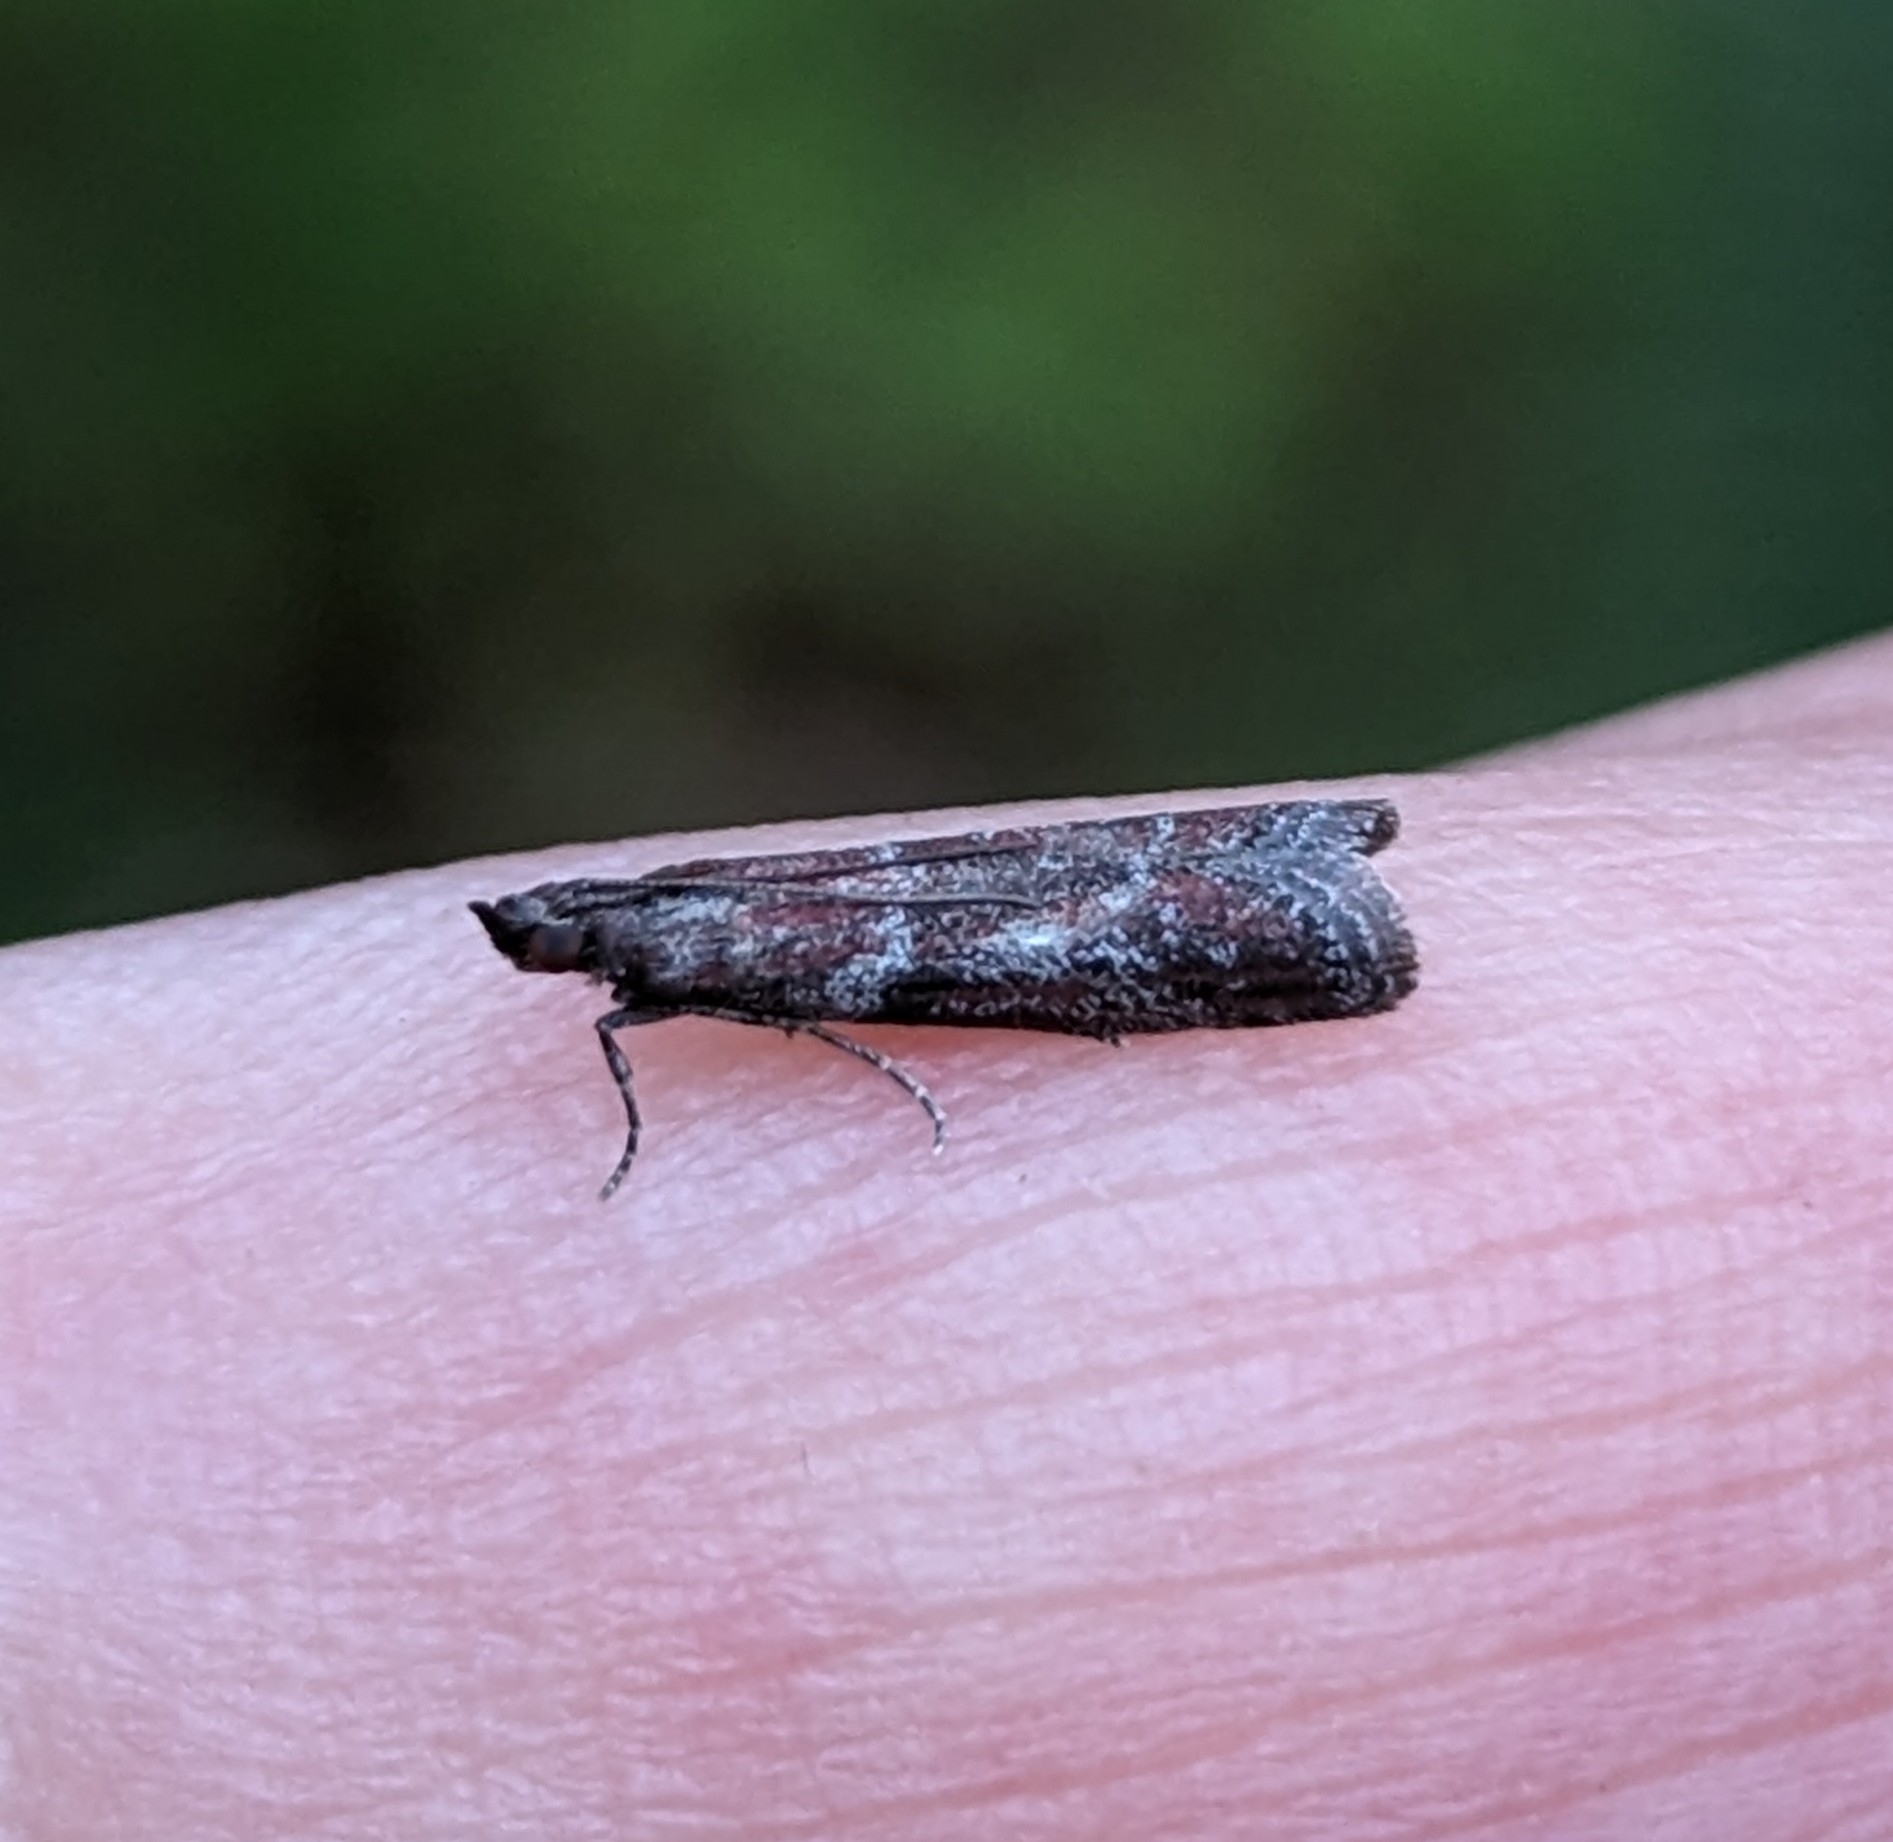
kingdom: Animalia
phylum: Arthropoda
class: Insecta
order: Lepidoptera
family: Pyralidae
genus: Ephestiodes
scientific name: Ephestiodes erythrella
